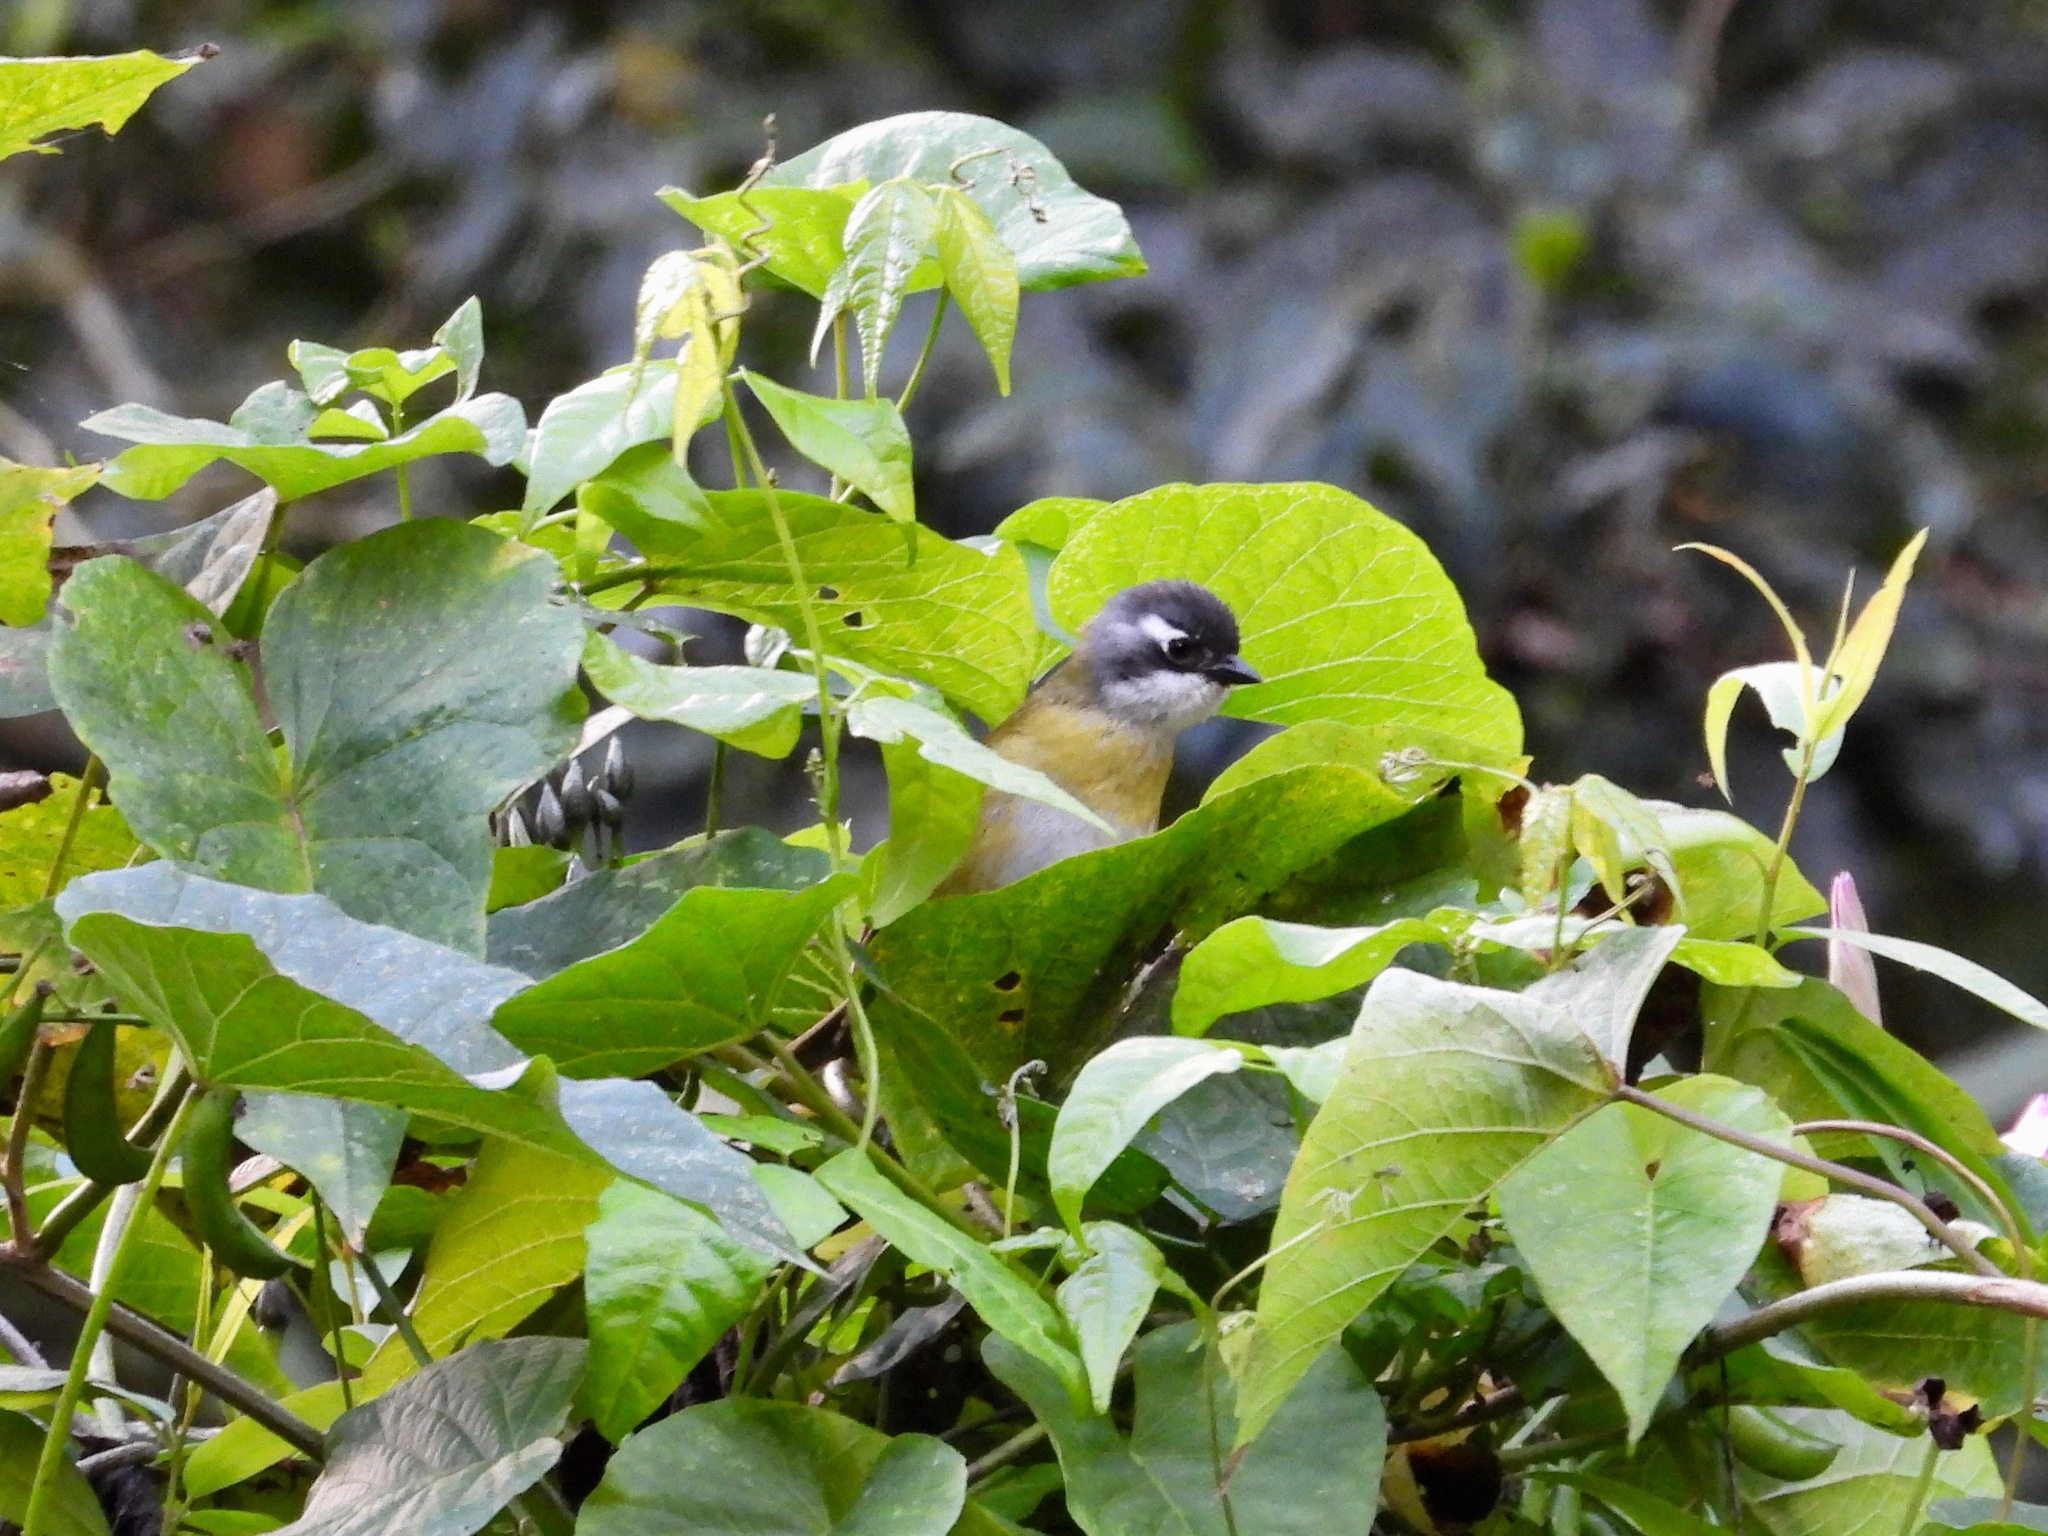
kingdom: Animalia
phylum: Chordata
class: Aves
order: Passeriformes
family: Passerellidae
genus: Chlorospingus
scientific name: Chlorospingus flavopectus
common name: Common chlorospingus
